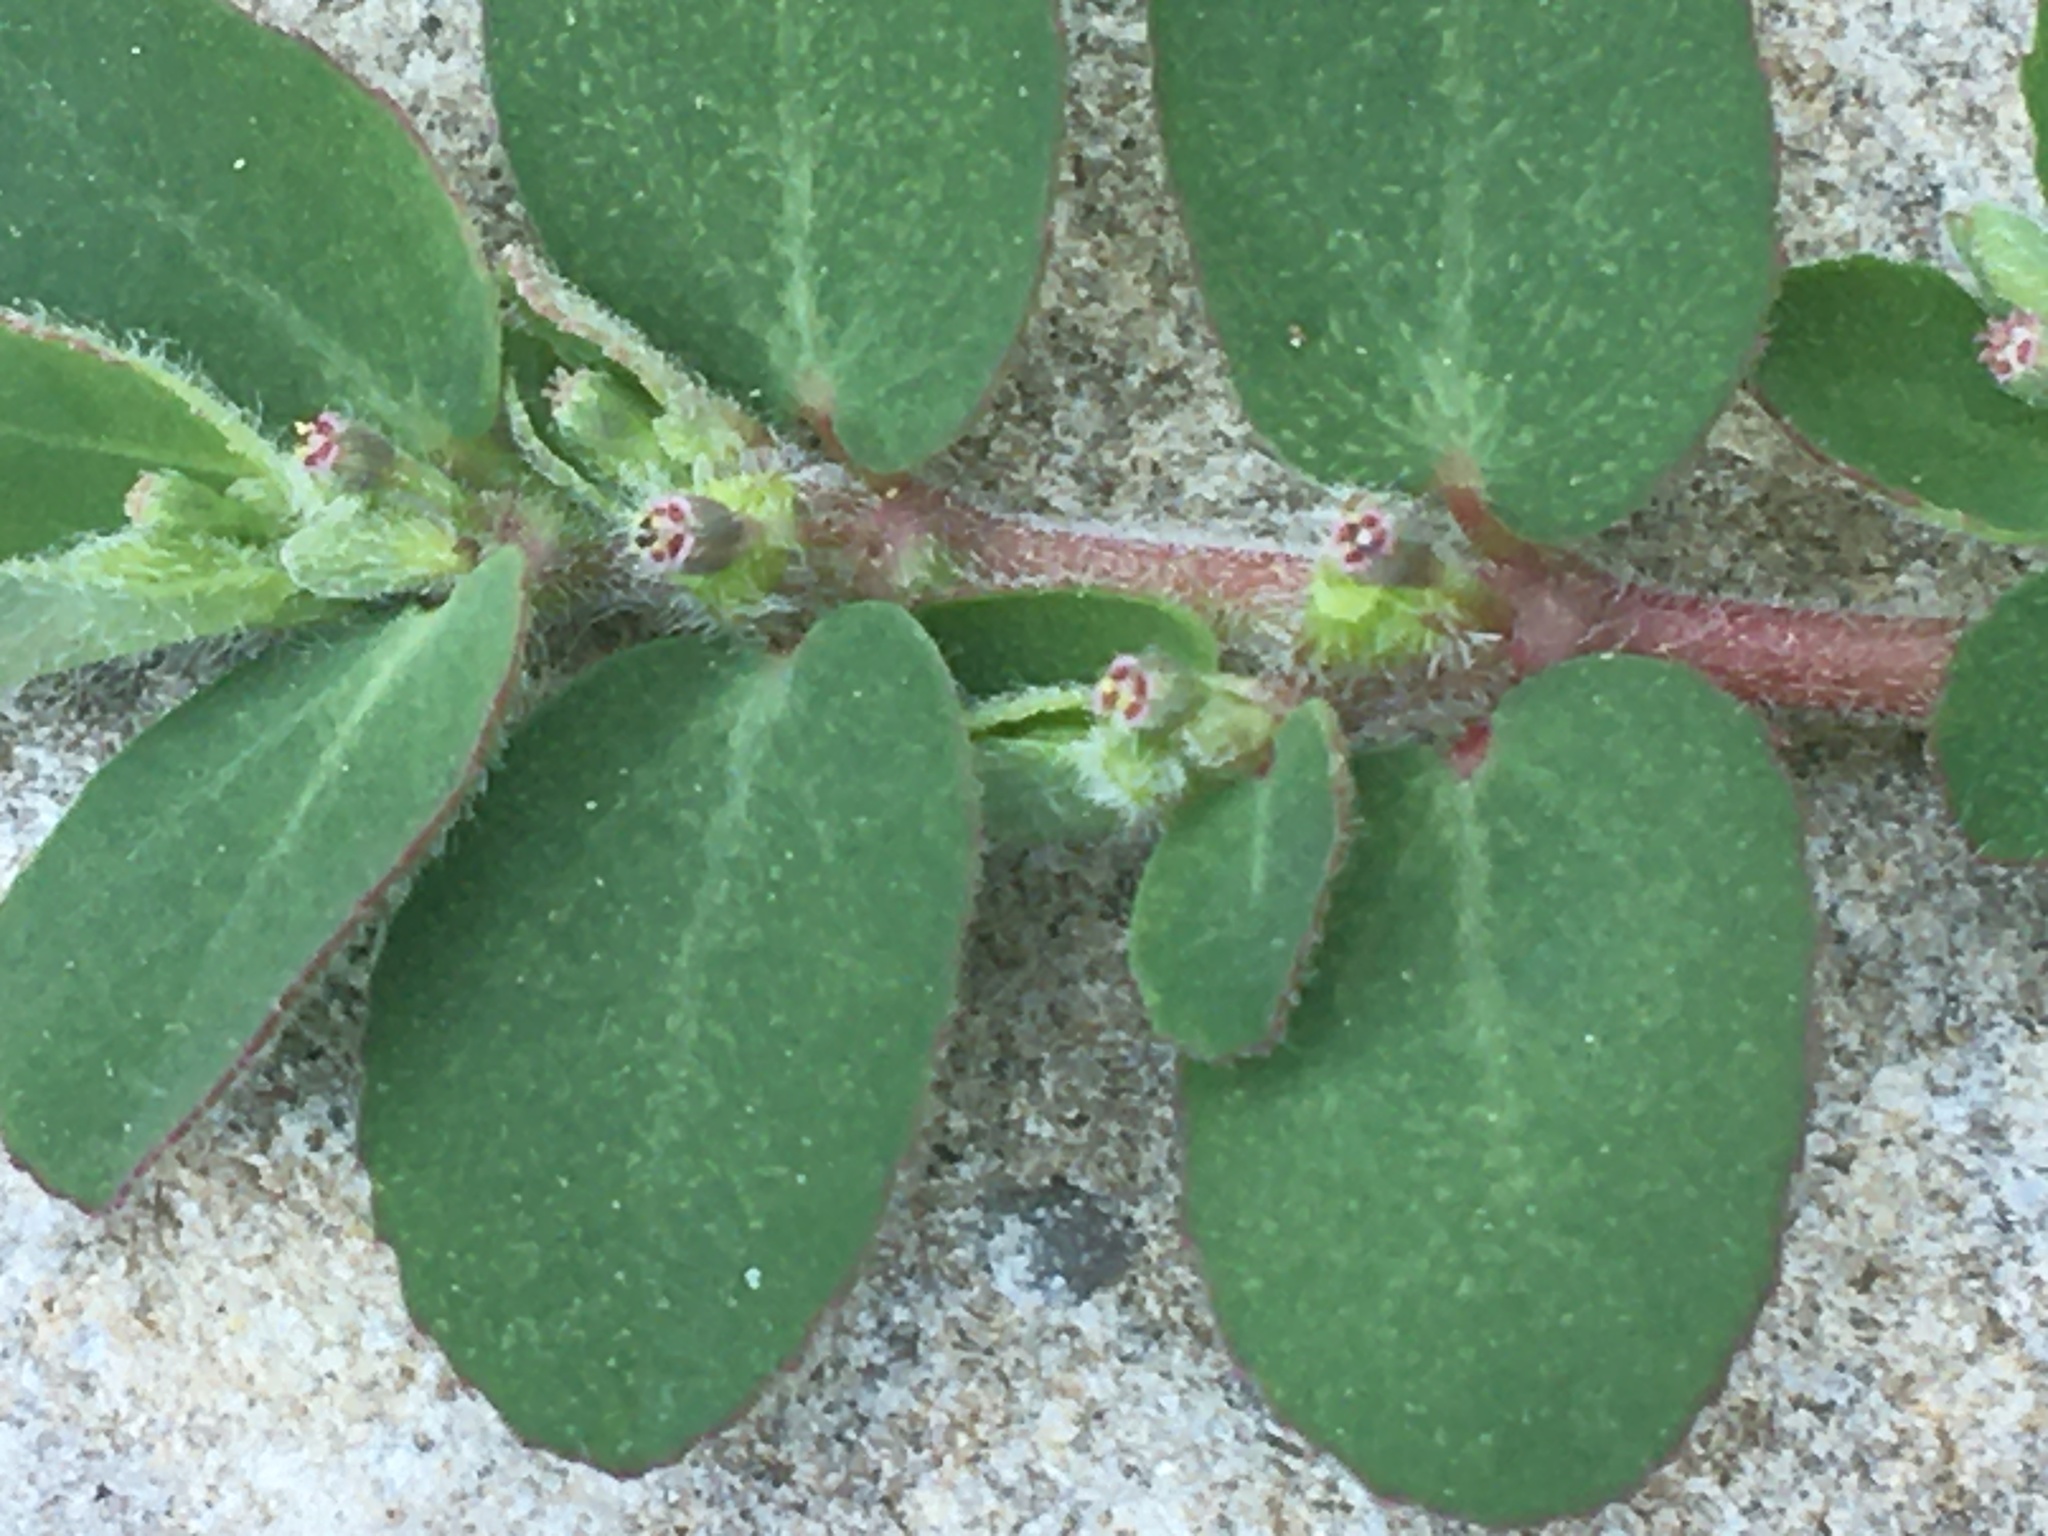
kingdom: Plantae
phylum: Tracheophyta
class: Magnoliopsida
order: Malpighiales
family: Euphorbiaceae
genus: Euphorbia
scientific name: Euphorbia prostrata
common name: Prostrate sandmat
